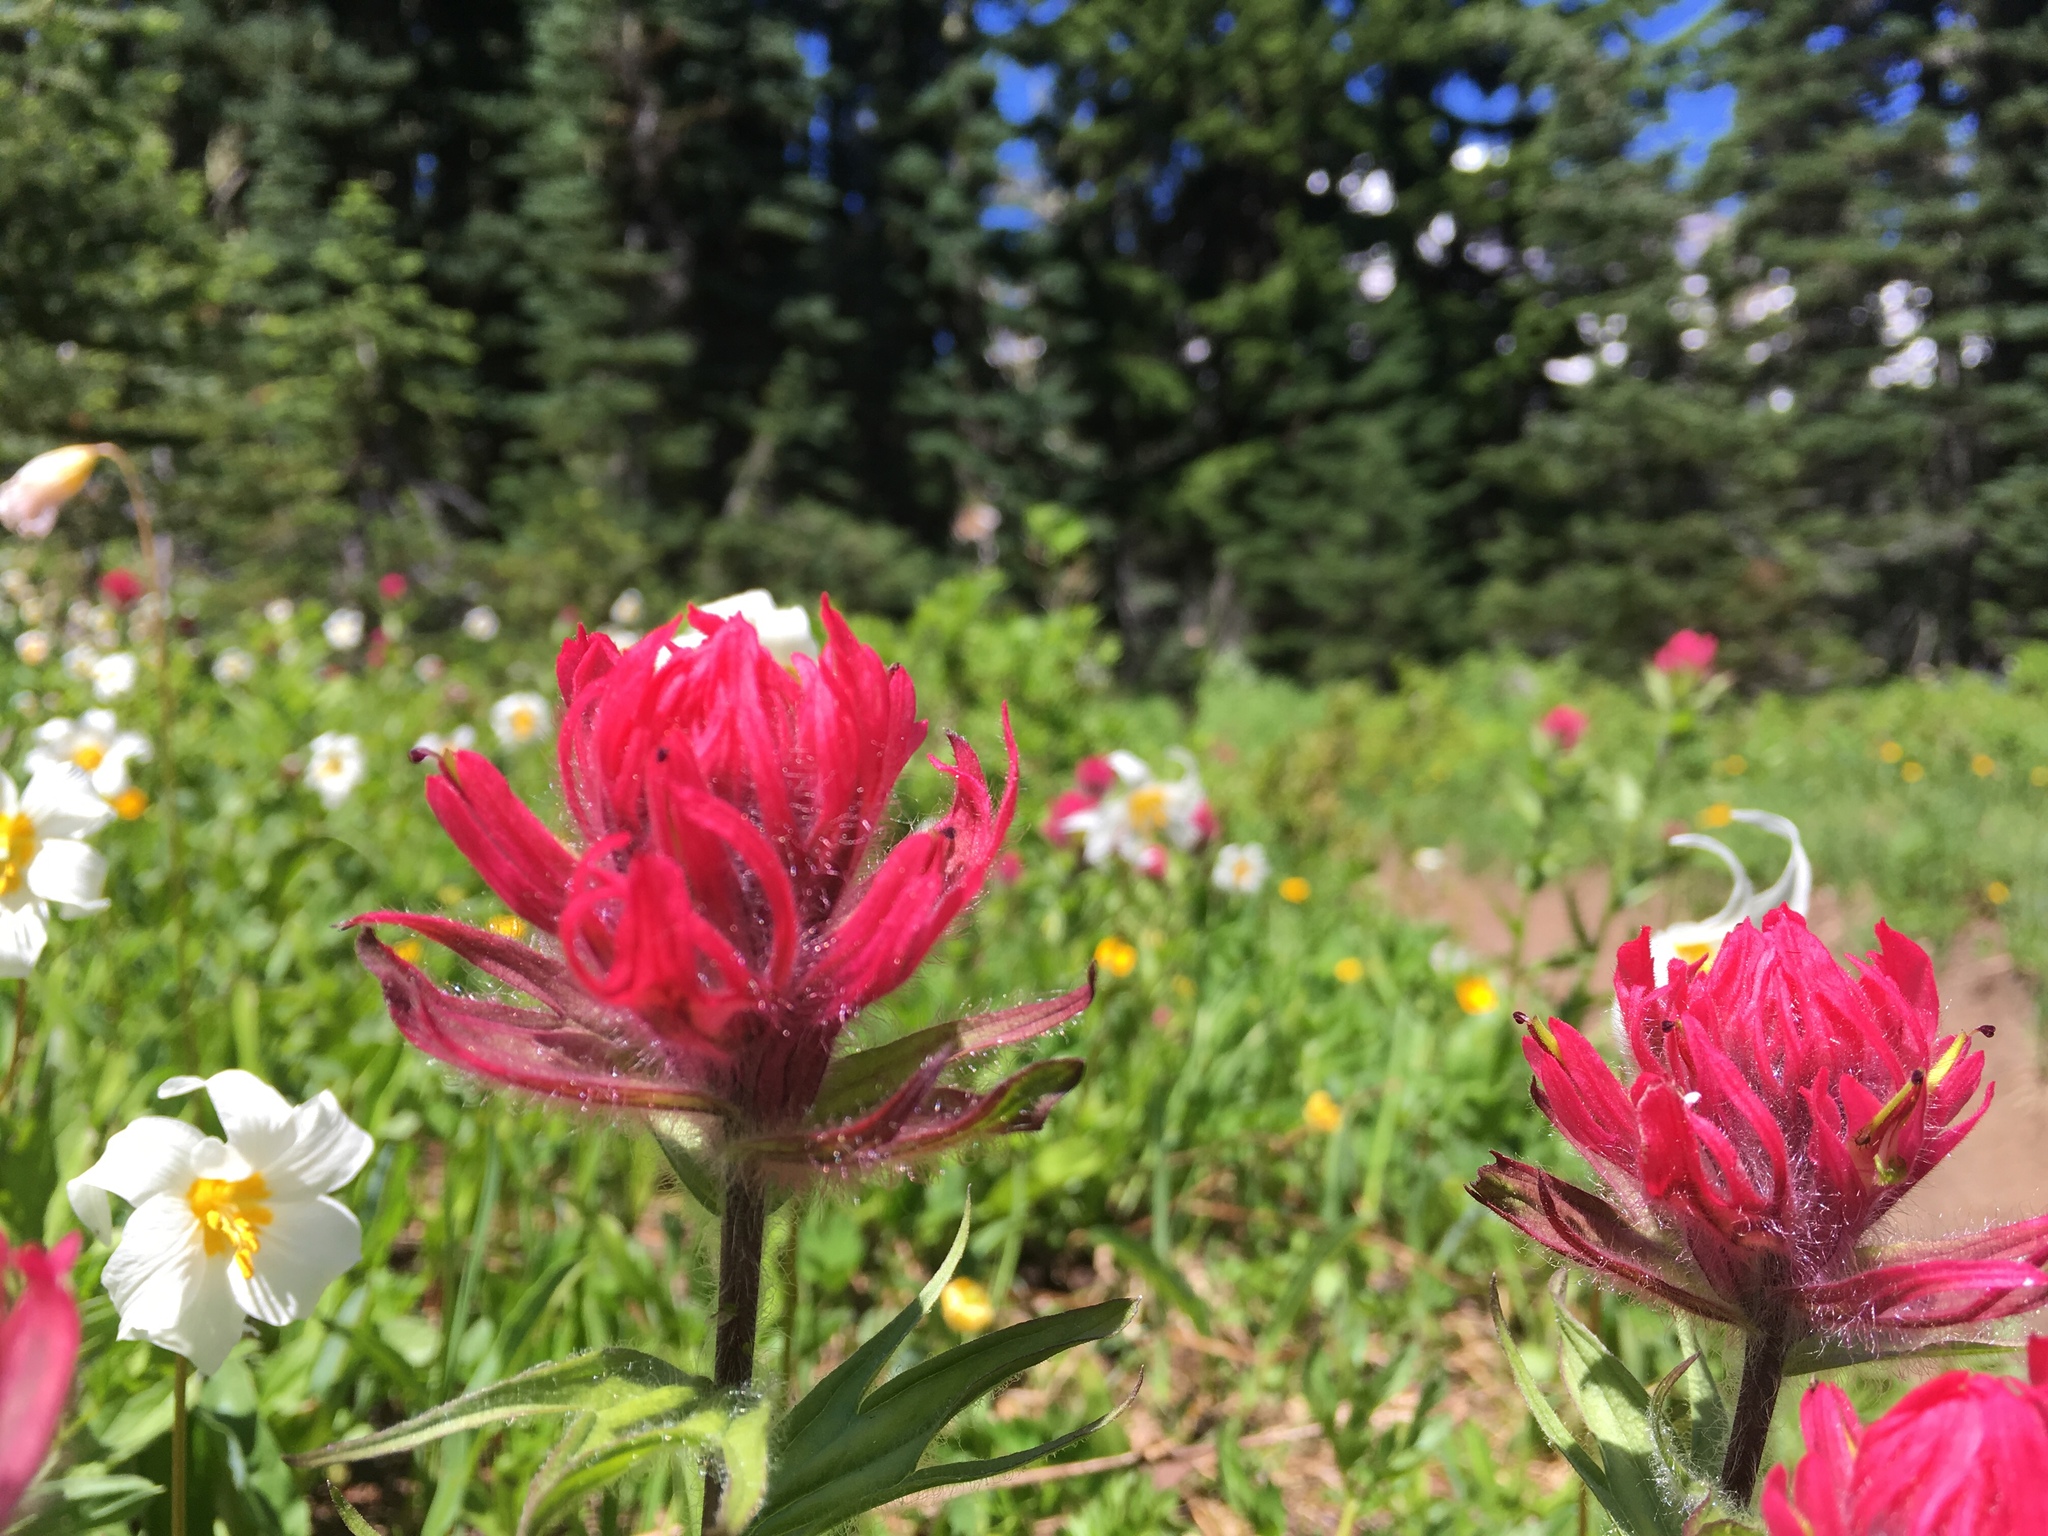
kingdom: Plantae
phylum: Tracheophyta
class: Magnoliopsida
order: Lamiales
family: Orobanchaceae
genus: Castilleja
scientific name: Castilleja parviflora
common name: Mountain paintbrush
